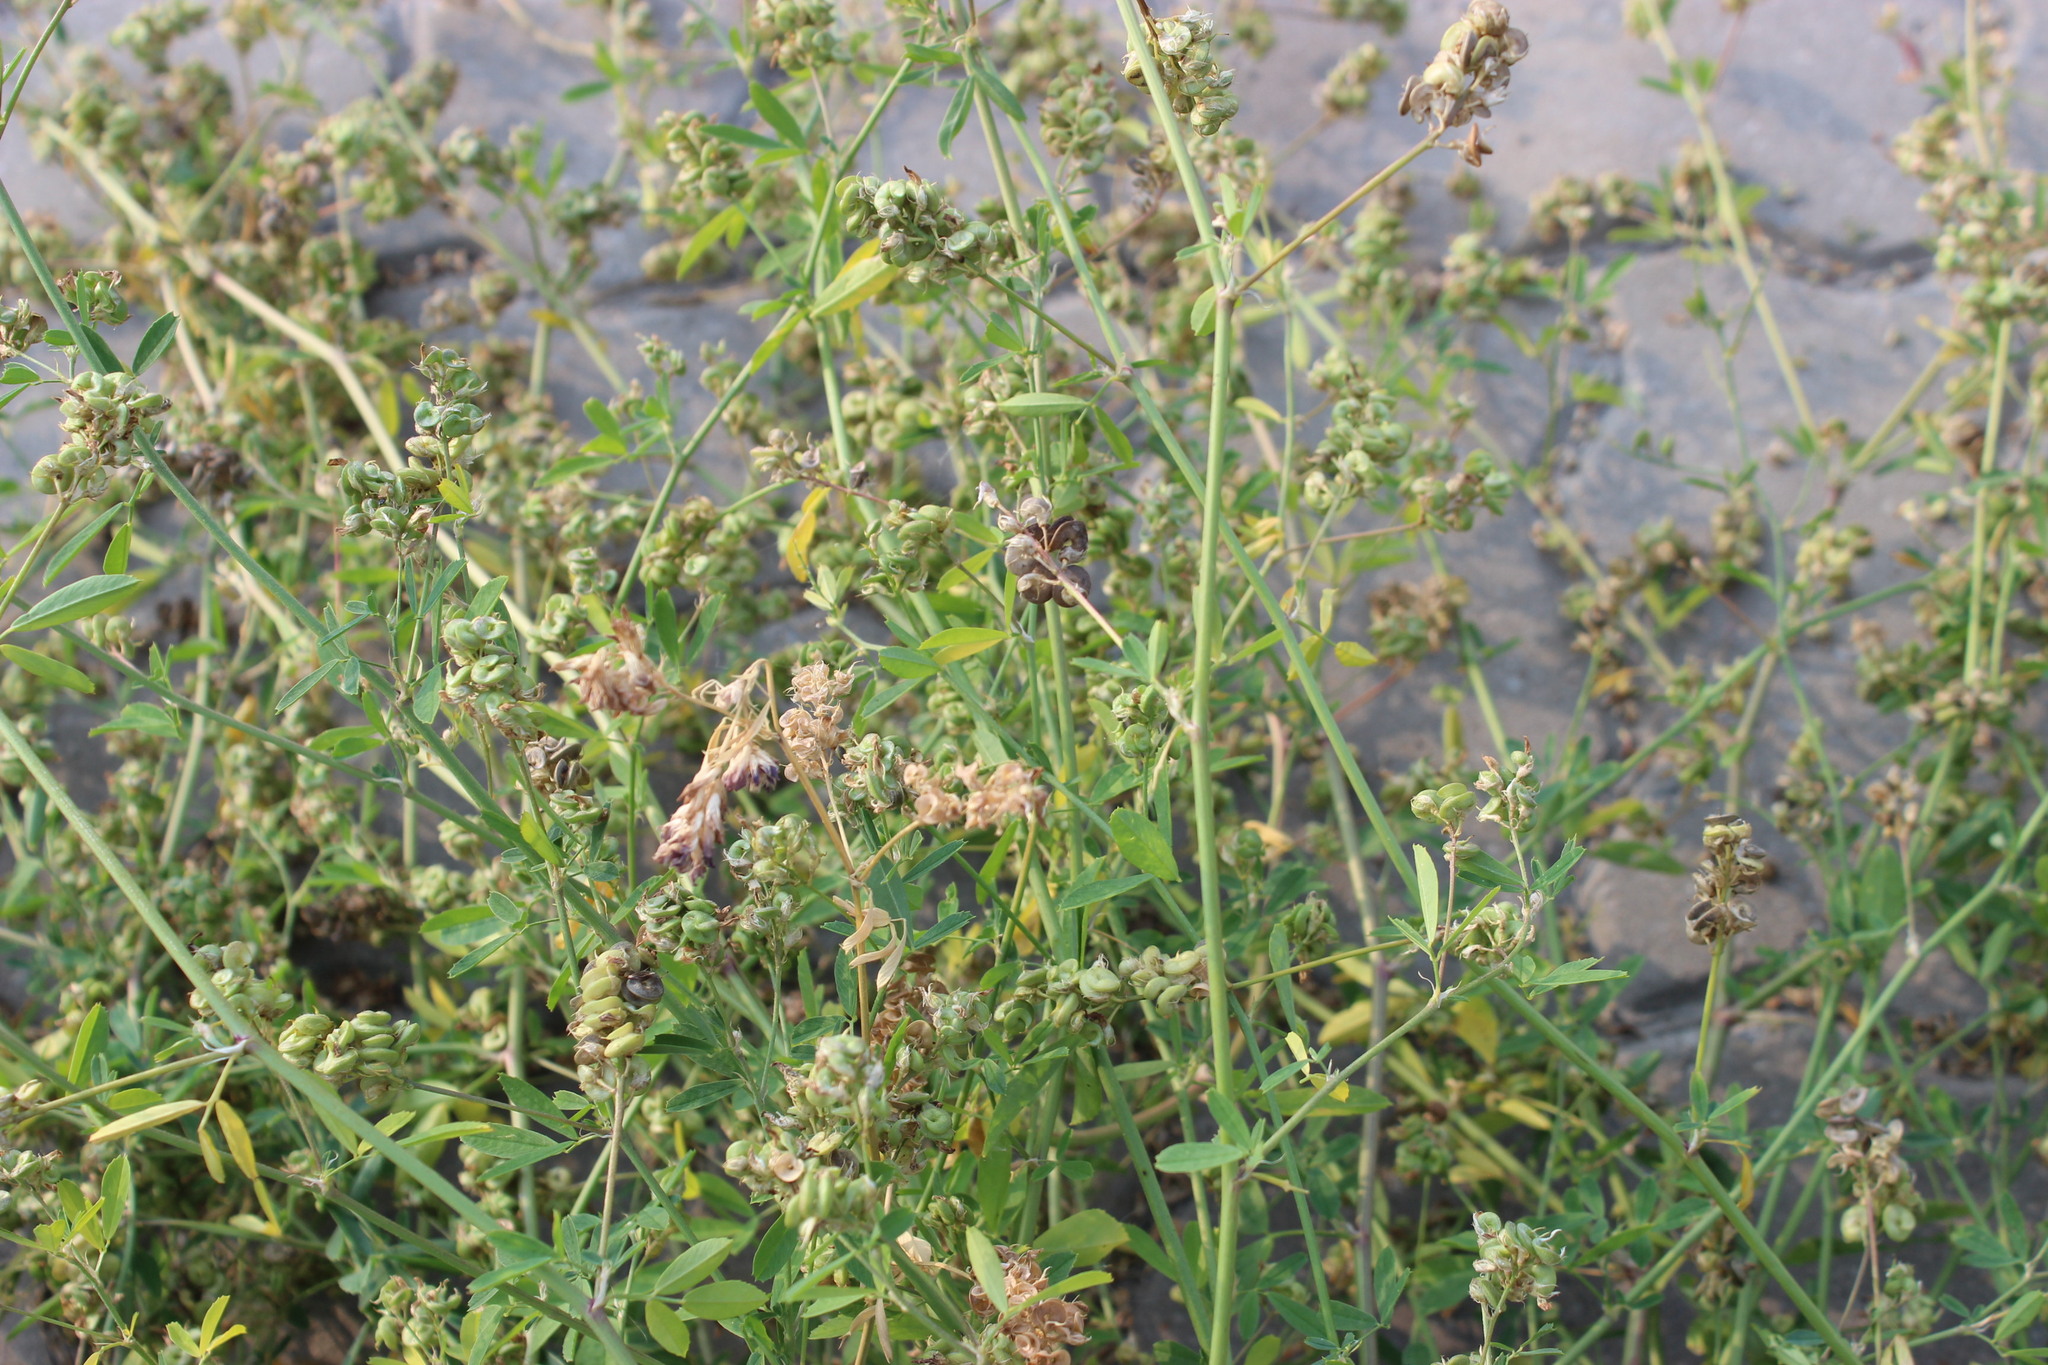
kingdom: Plantae
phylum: Tracheophyta
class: Magnoliopsida
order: Fabales
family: Fabaceae
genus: Medicago
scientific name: Medicago varia
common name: Sand lucerne
